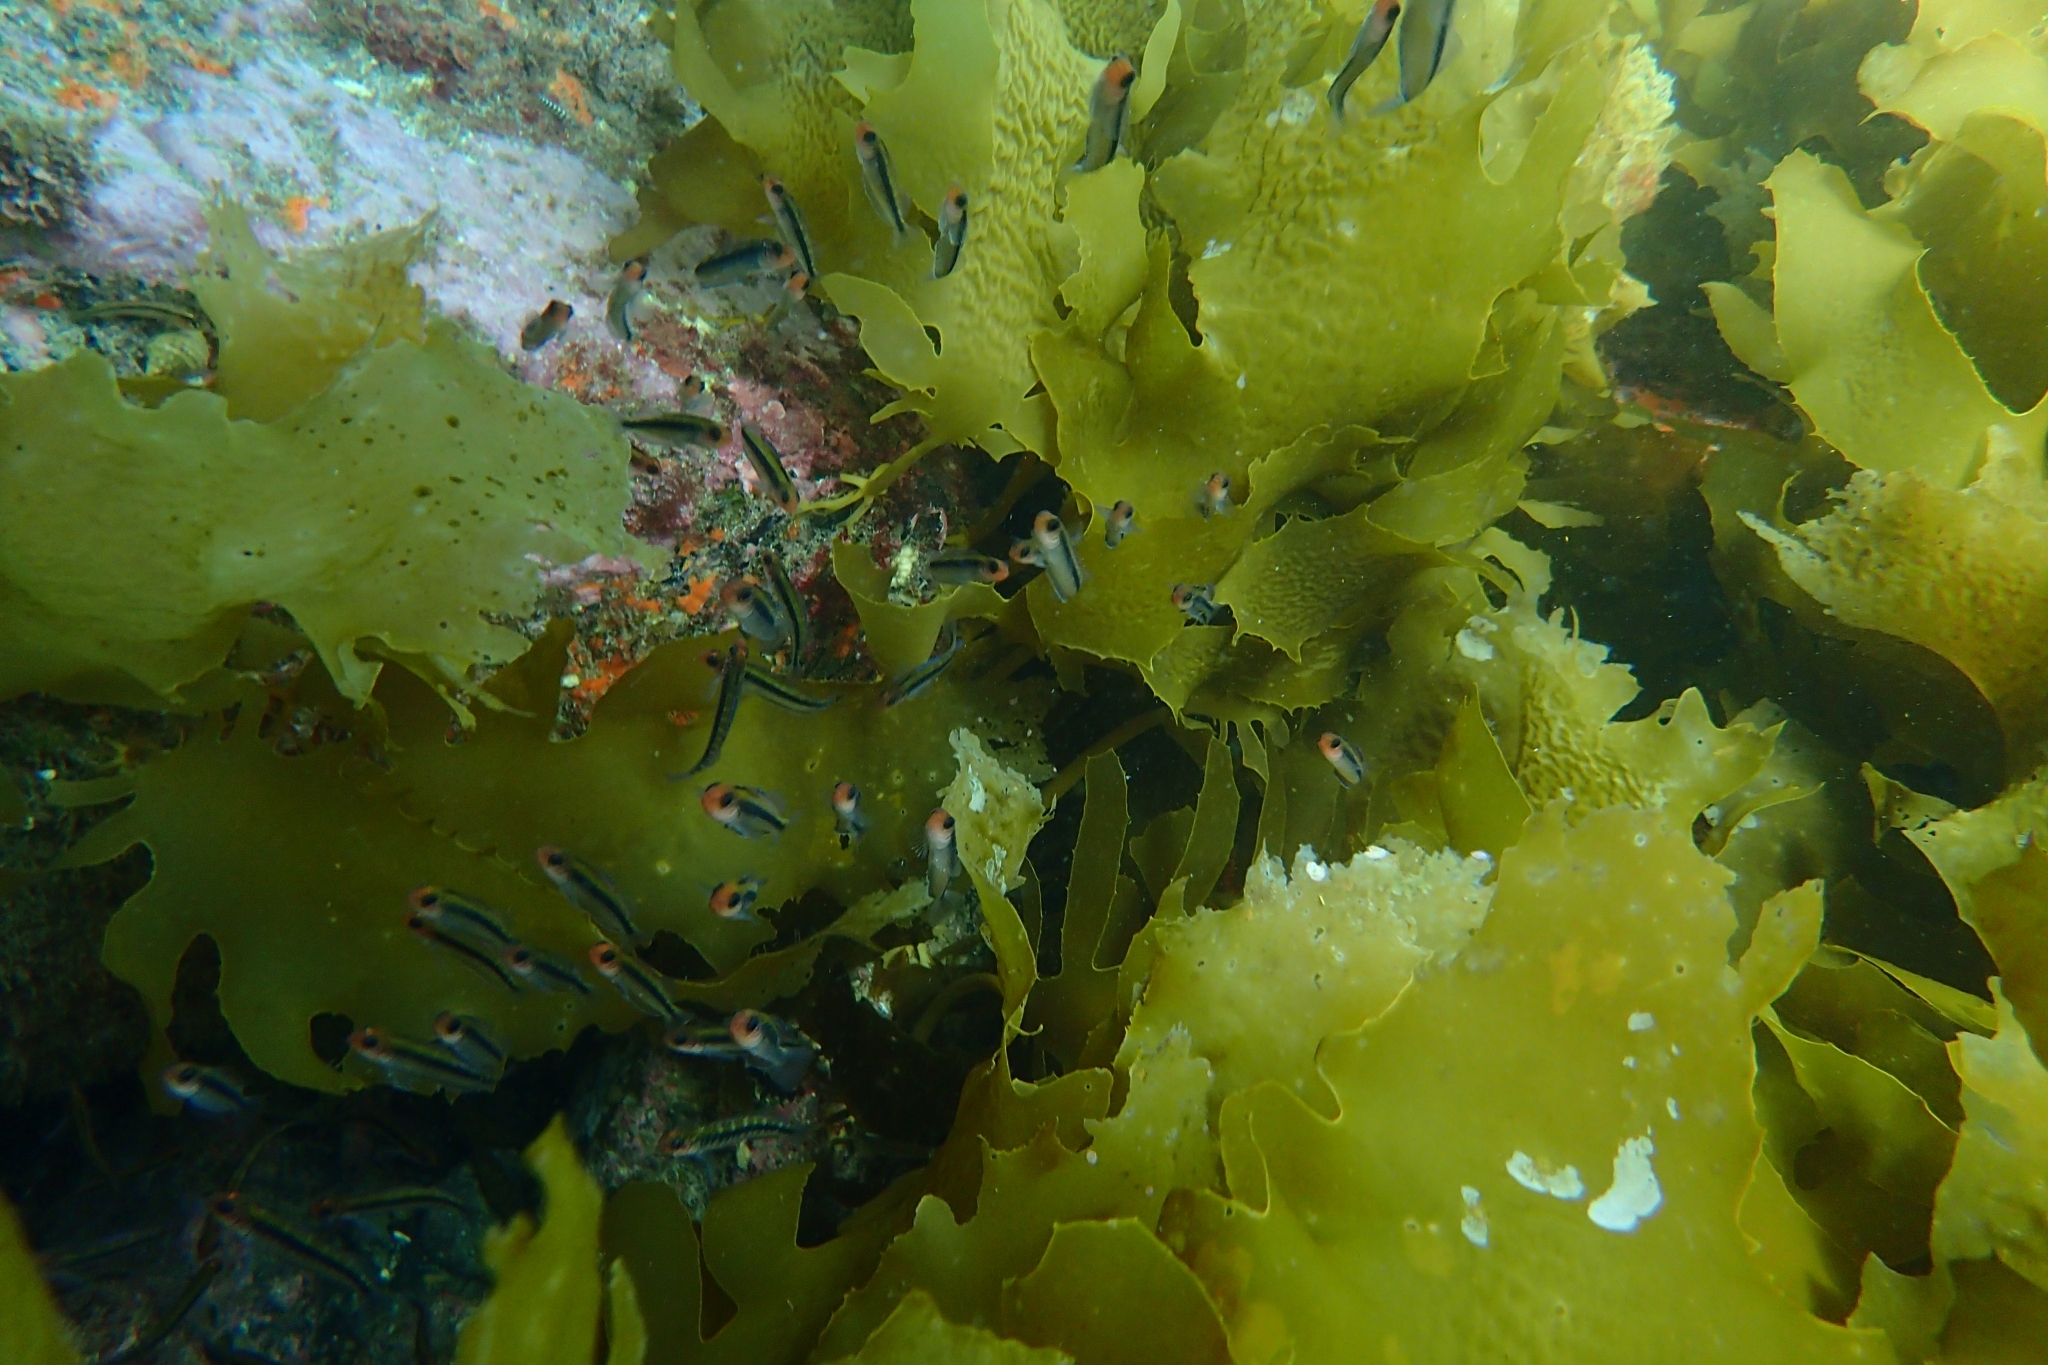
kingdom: Animalia
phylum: Chordata
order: Perciformes
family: Tripterygiidae
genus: Forsterygion
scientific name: Forsterygion maryannae
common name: Oblique-swimming triplefin
